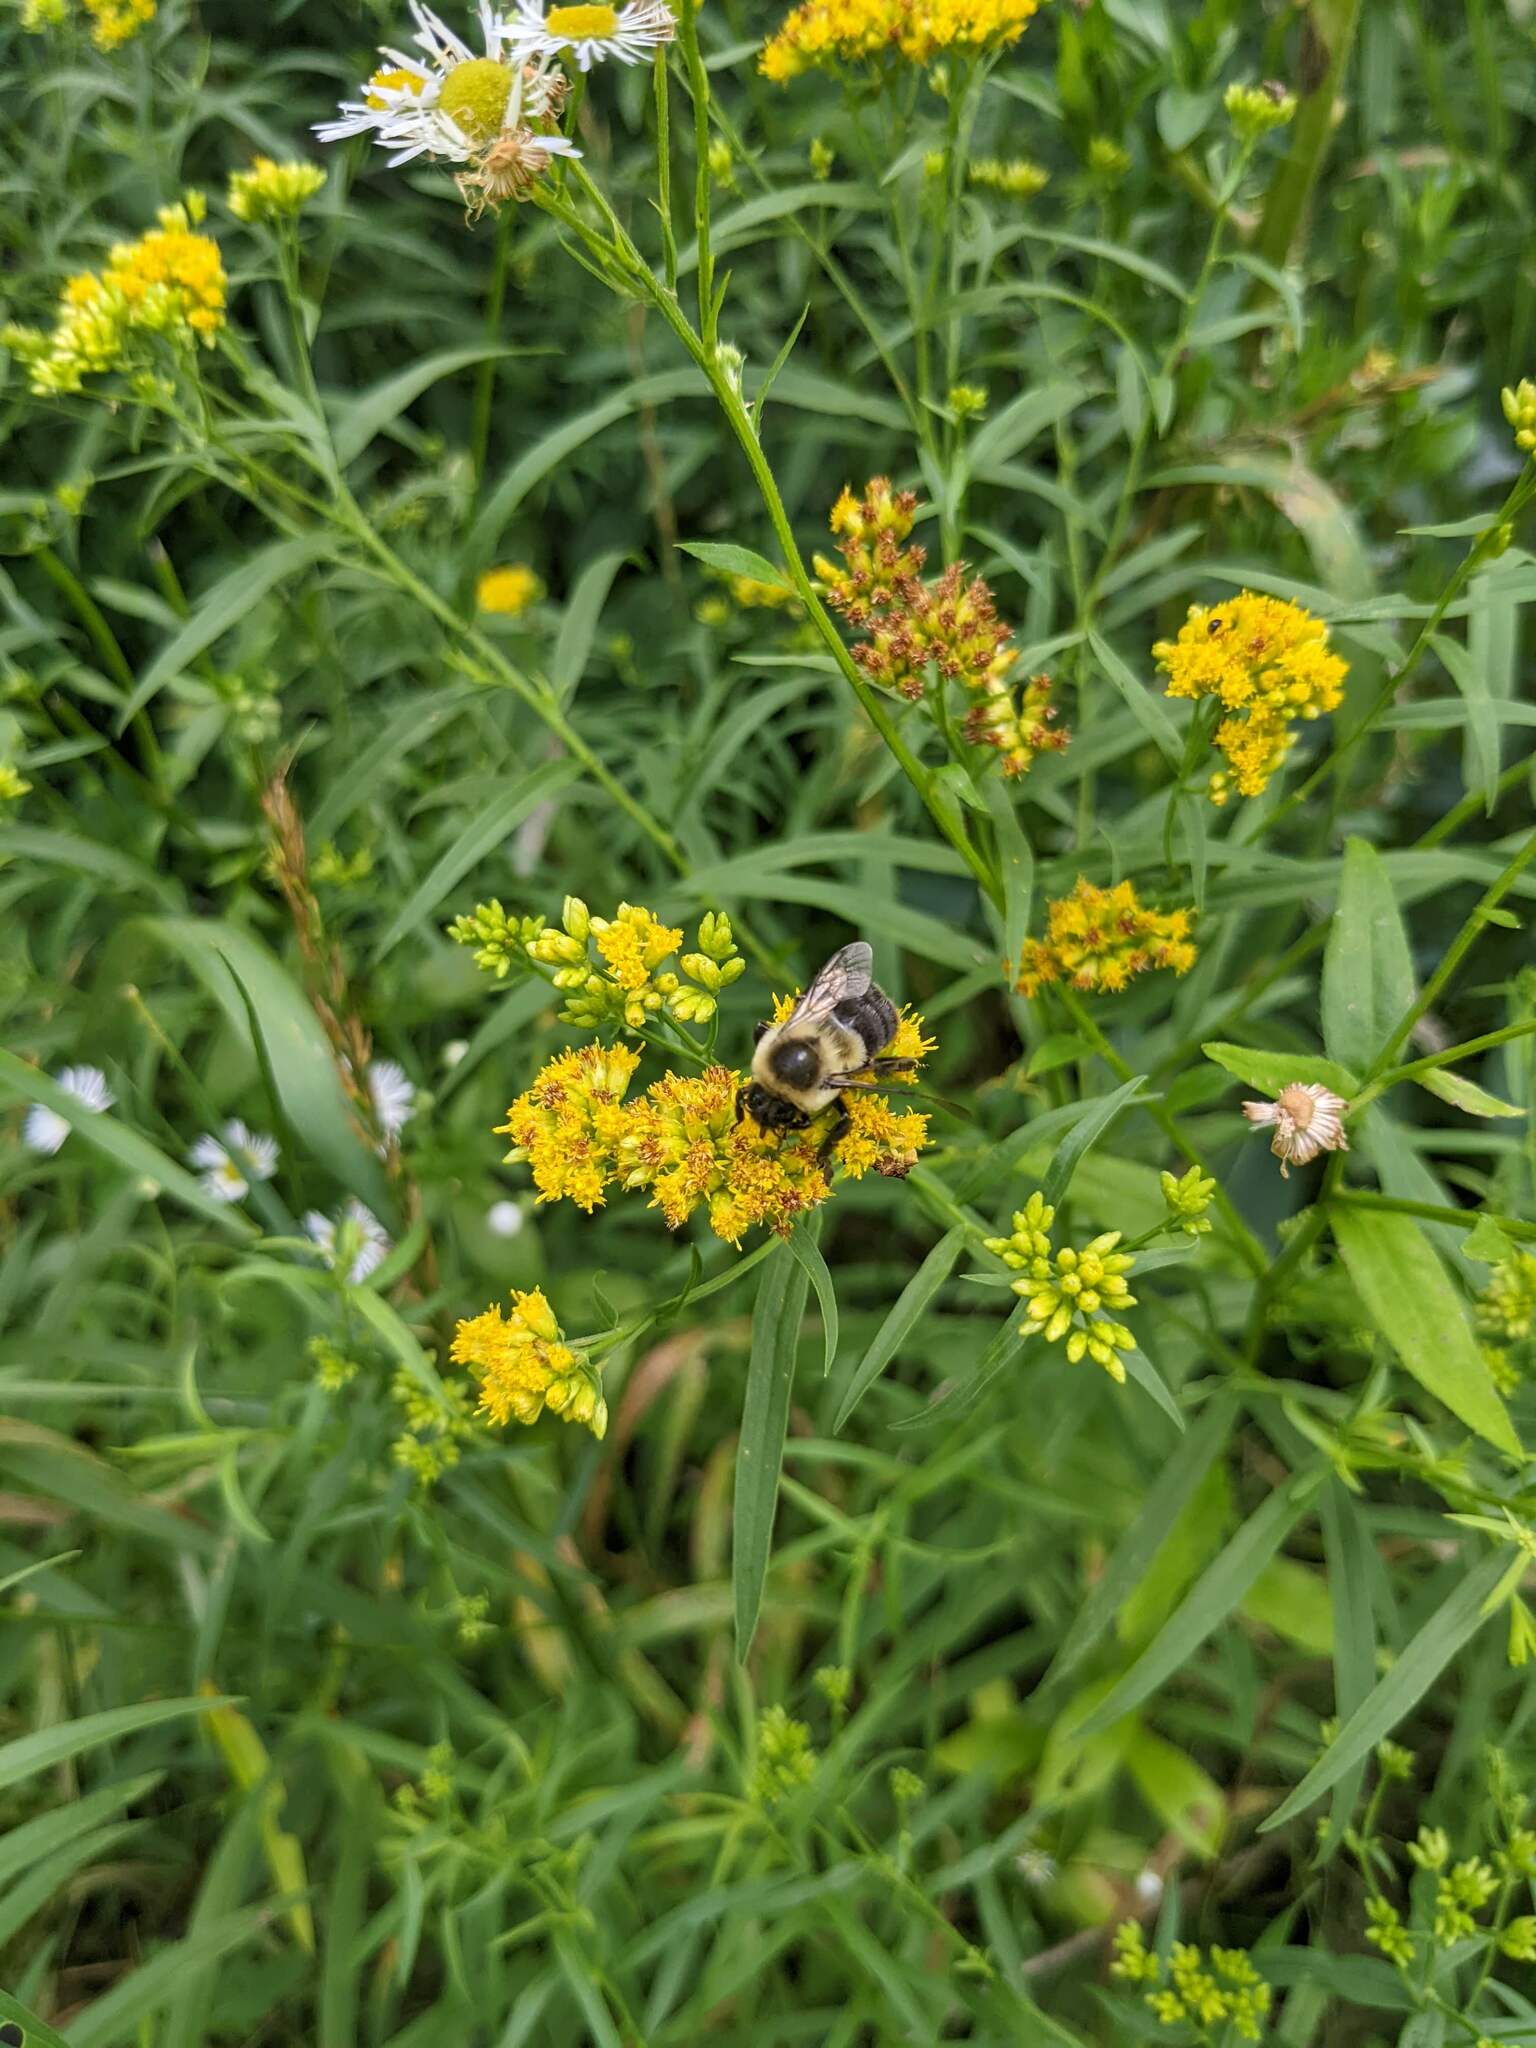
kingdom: Animalia
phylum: Arthropoda
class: Insecta
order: Hymenoptera
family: Apidae
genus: Bombus
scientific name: Bombus impatiens
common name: Common eastern bumble bee
